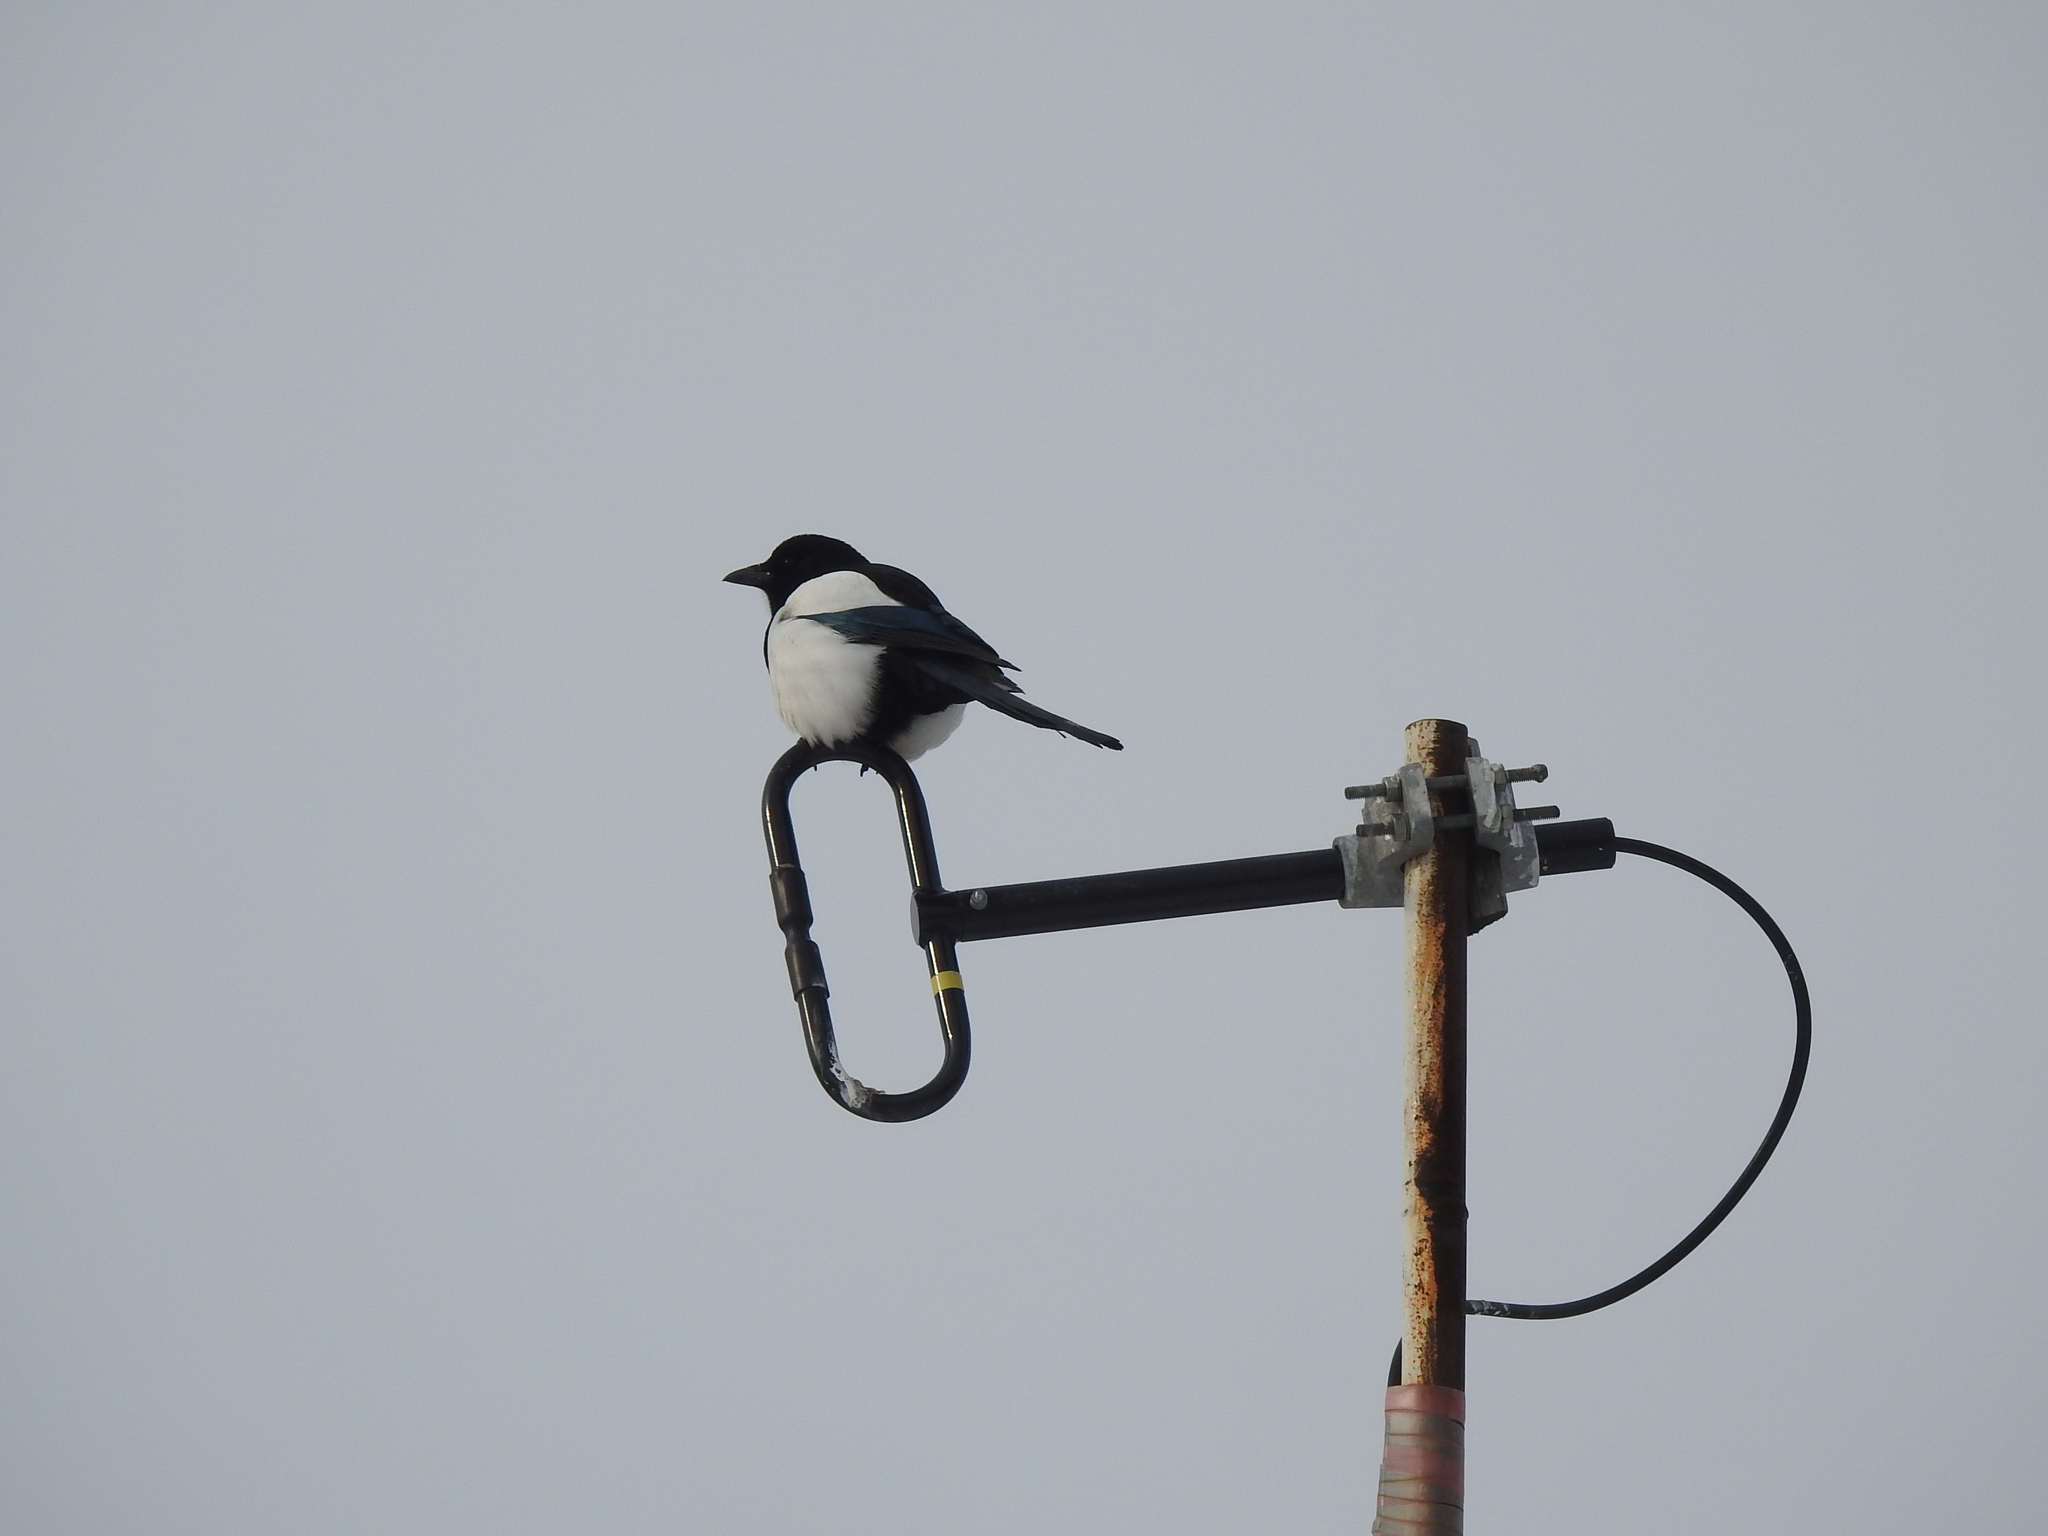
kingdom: Animalia
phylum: Chordata
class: Aves
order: Passeriformes
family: Corvidae
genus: Pica
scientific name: Pica pica
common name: Eurasian magpie
